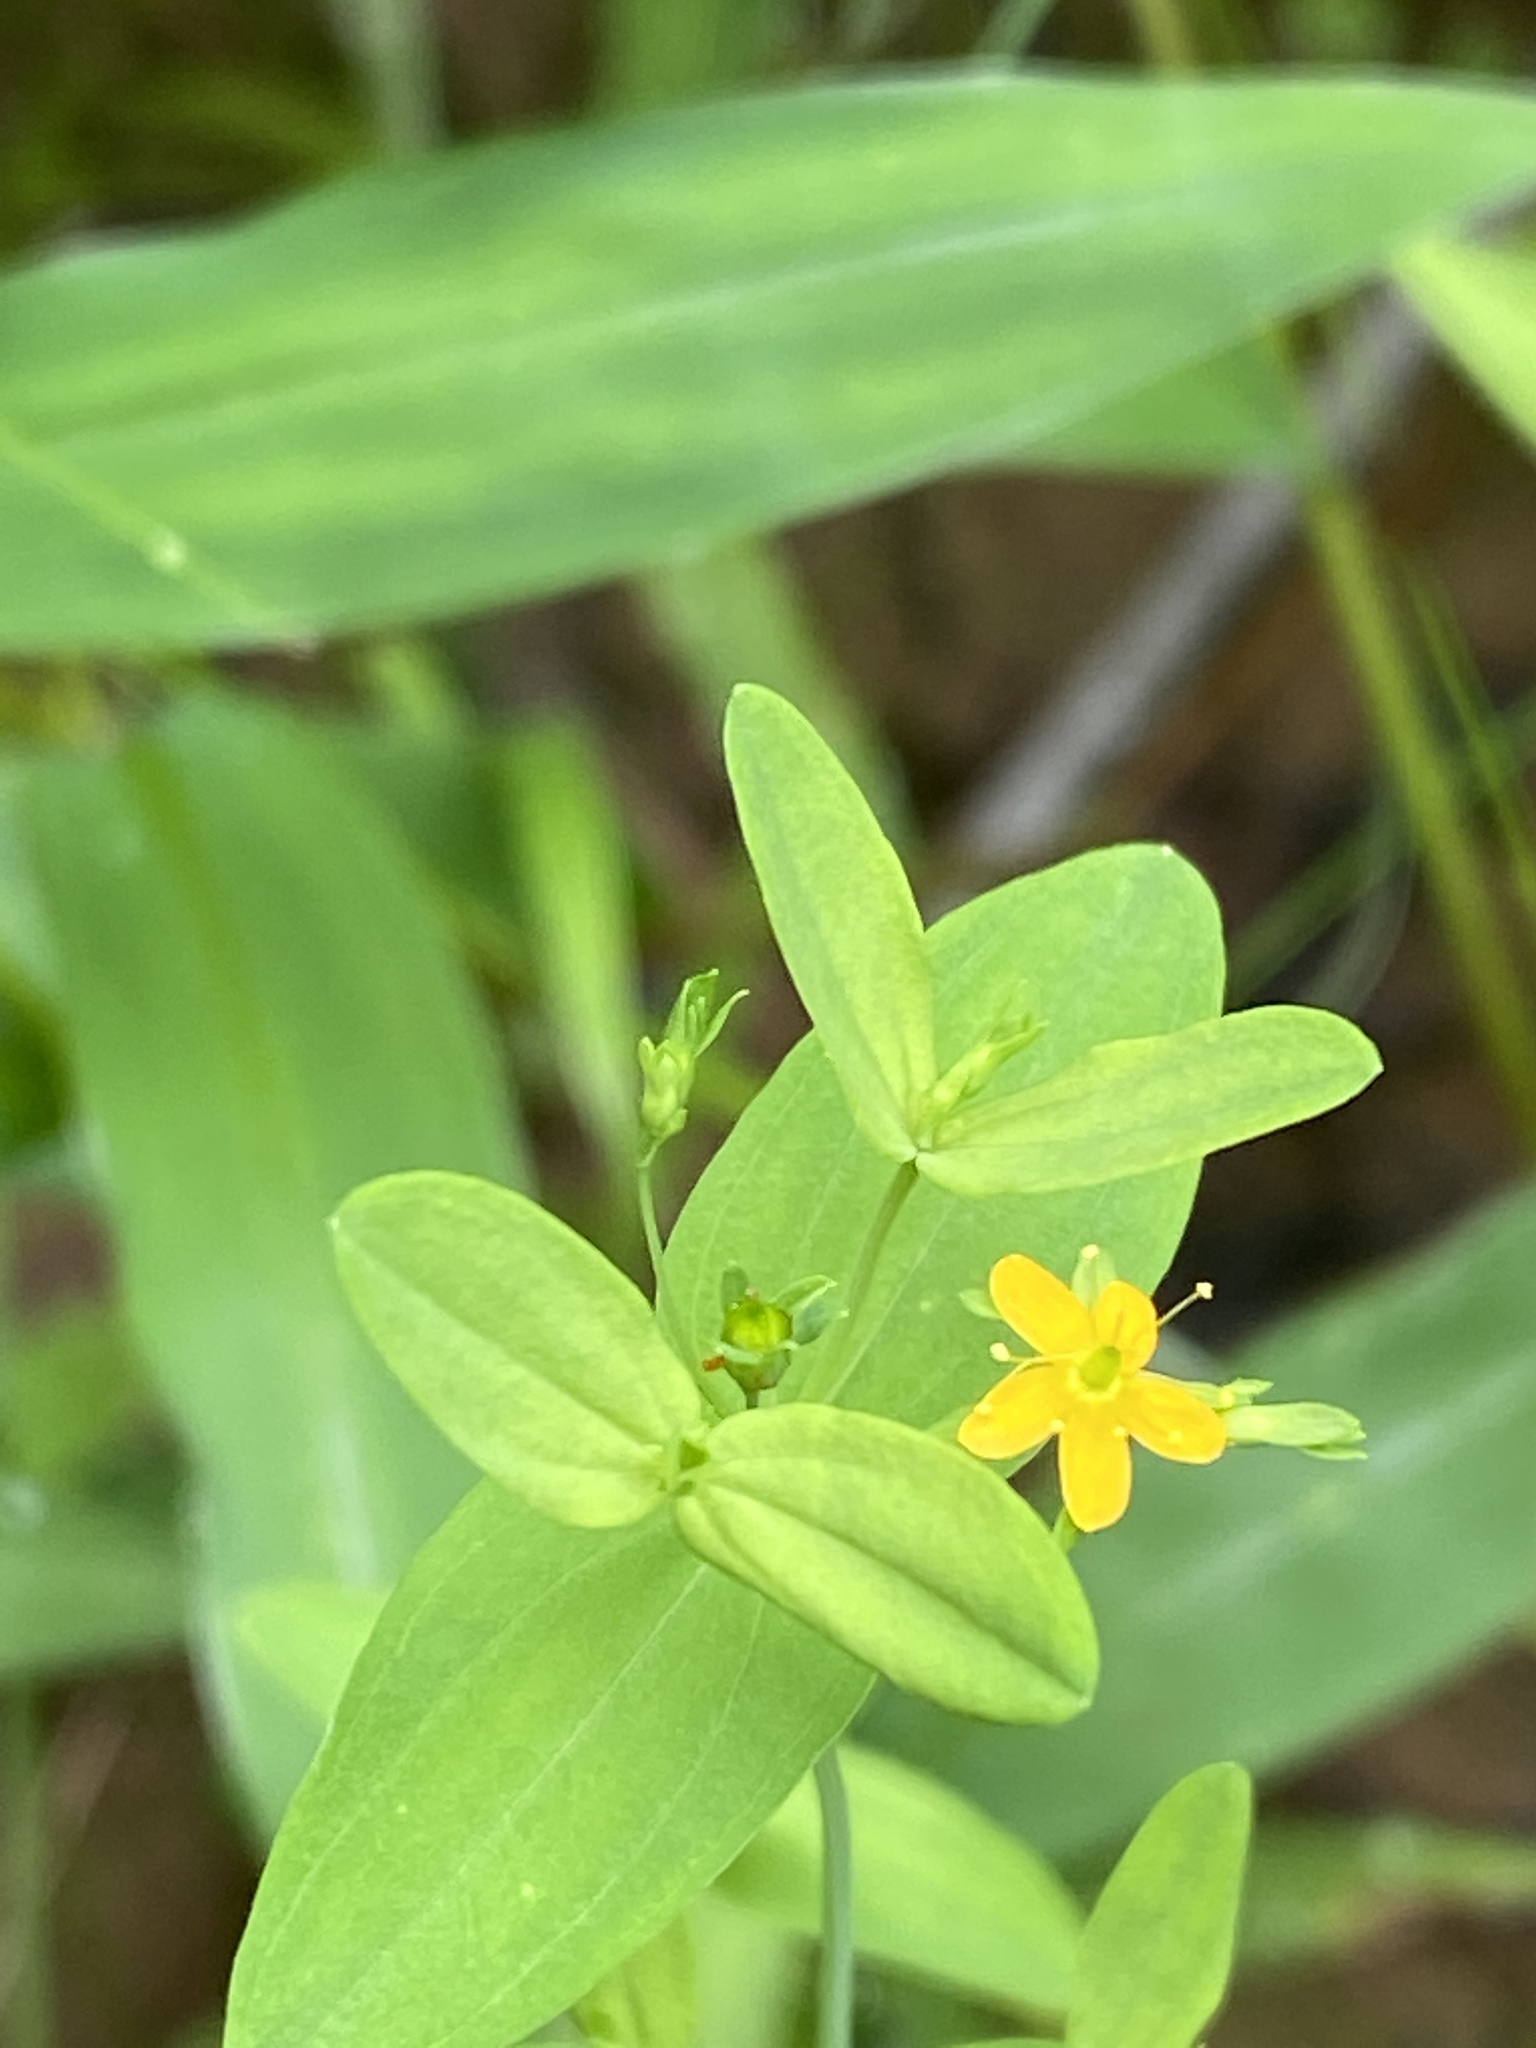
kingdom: Plantae
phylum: Tracheophyta
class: Magnoliopsida
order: Malpighiales
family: Hypericaceae
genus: Hypericum
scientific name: Hypericum mutilum
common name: Dwarf st. john's-wort
